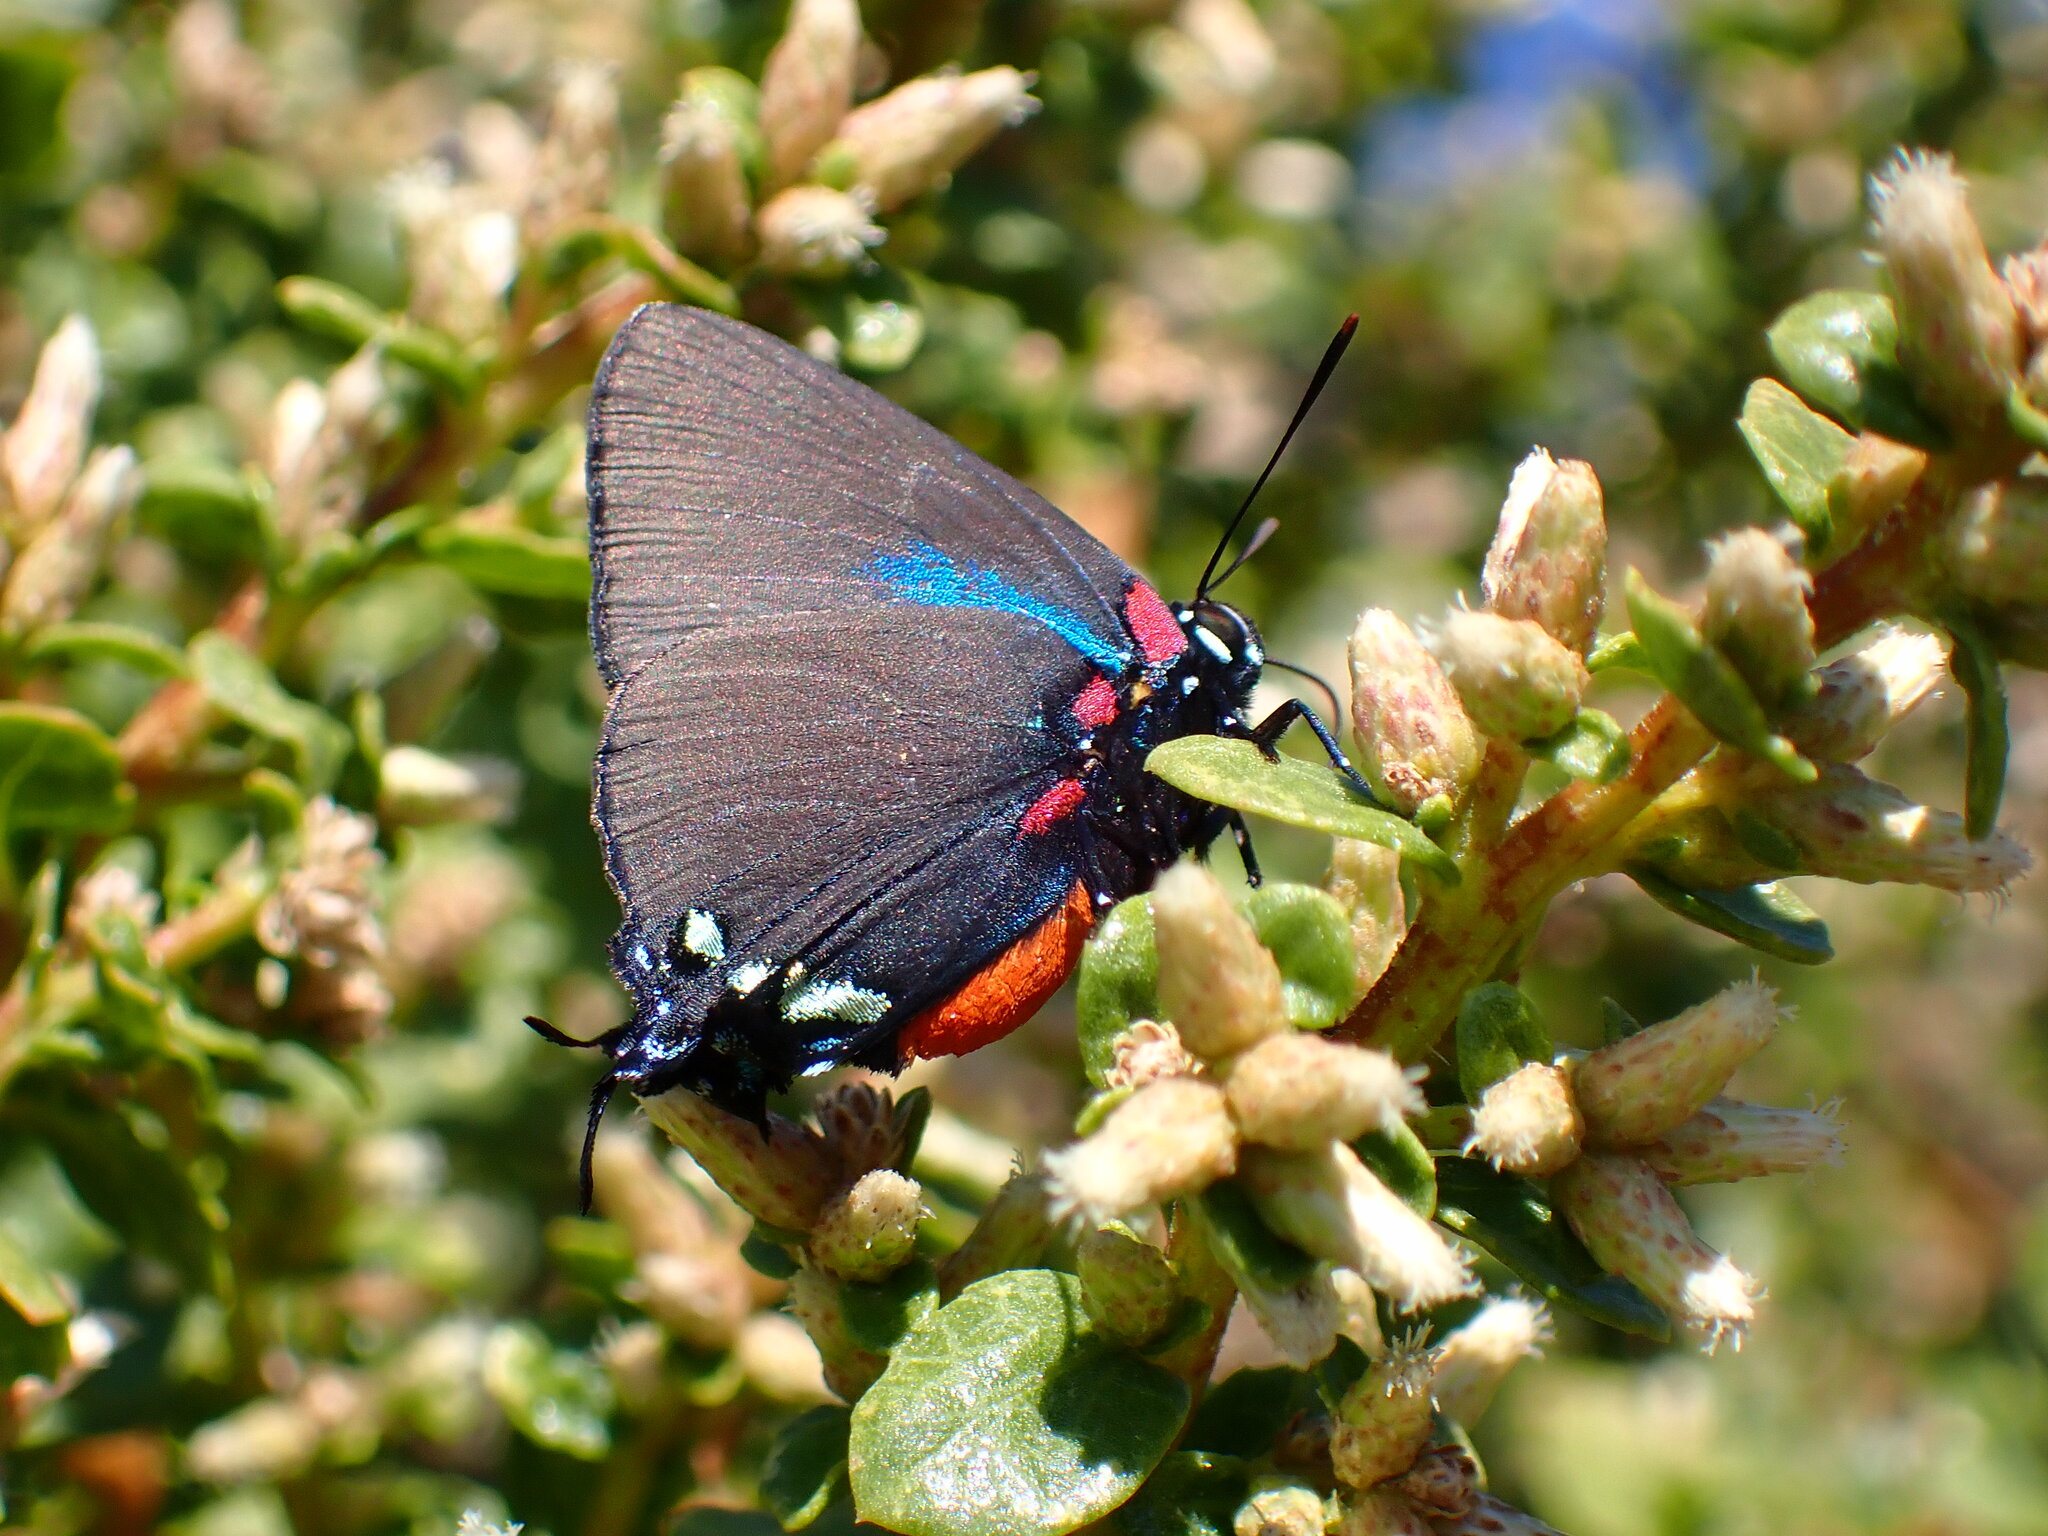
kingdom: Animalia
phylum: Arthropoda
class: Insecta
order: Lepidoptera
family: Lycaenidae
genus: Atlides
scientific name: Atlides halesus
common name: Great purple hairstreak
